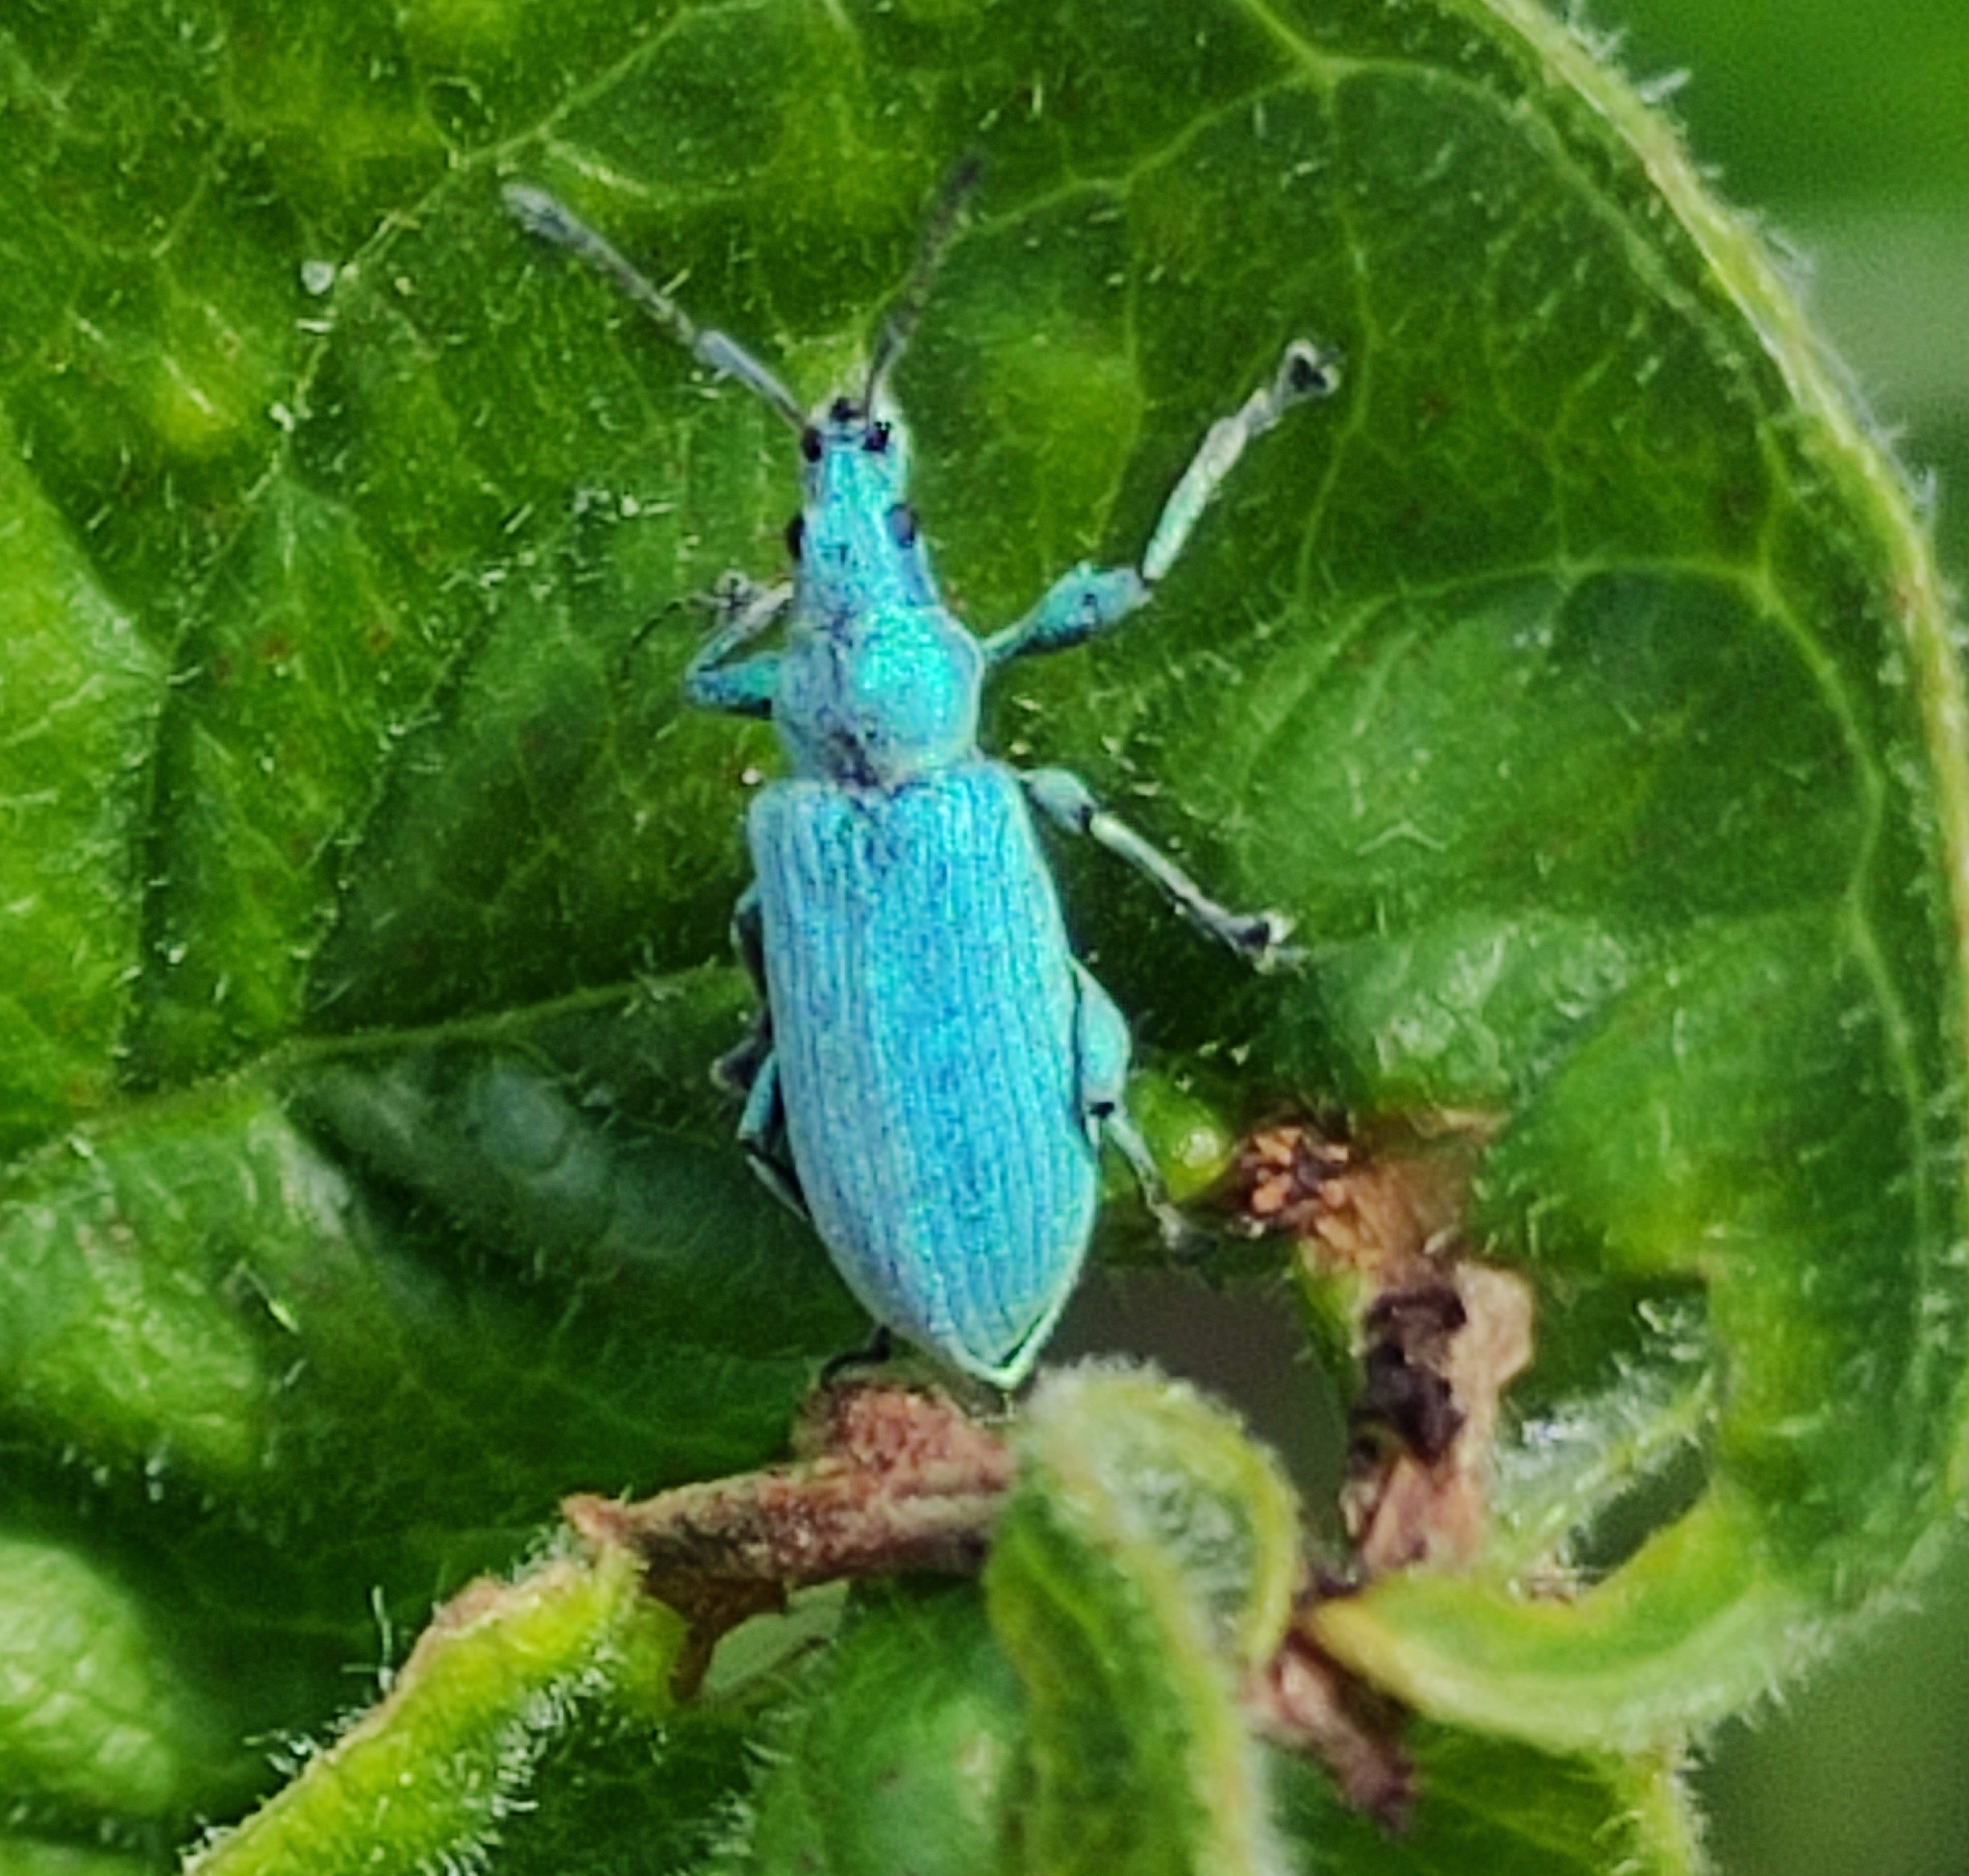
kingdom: Animalia
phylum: Arthropoda
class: Insecta
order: Coleoptera
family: Curculionidae
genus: Phyllobius
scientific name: Phyllobius maculicornis
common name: Green leaf weevil
